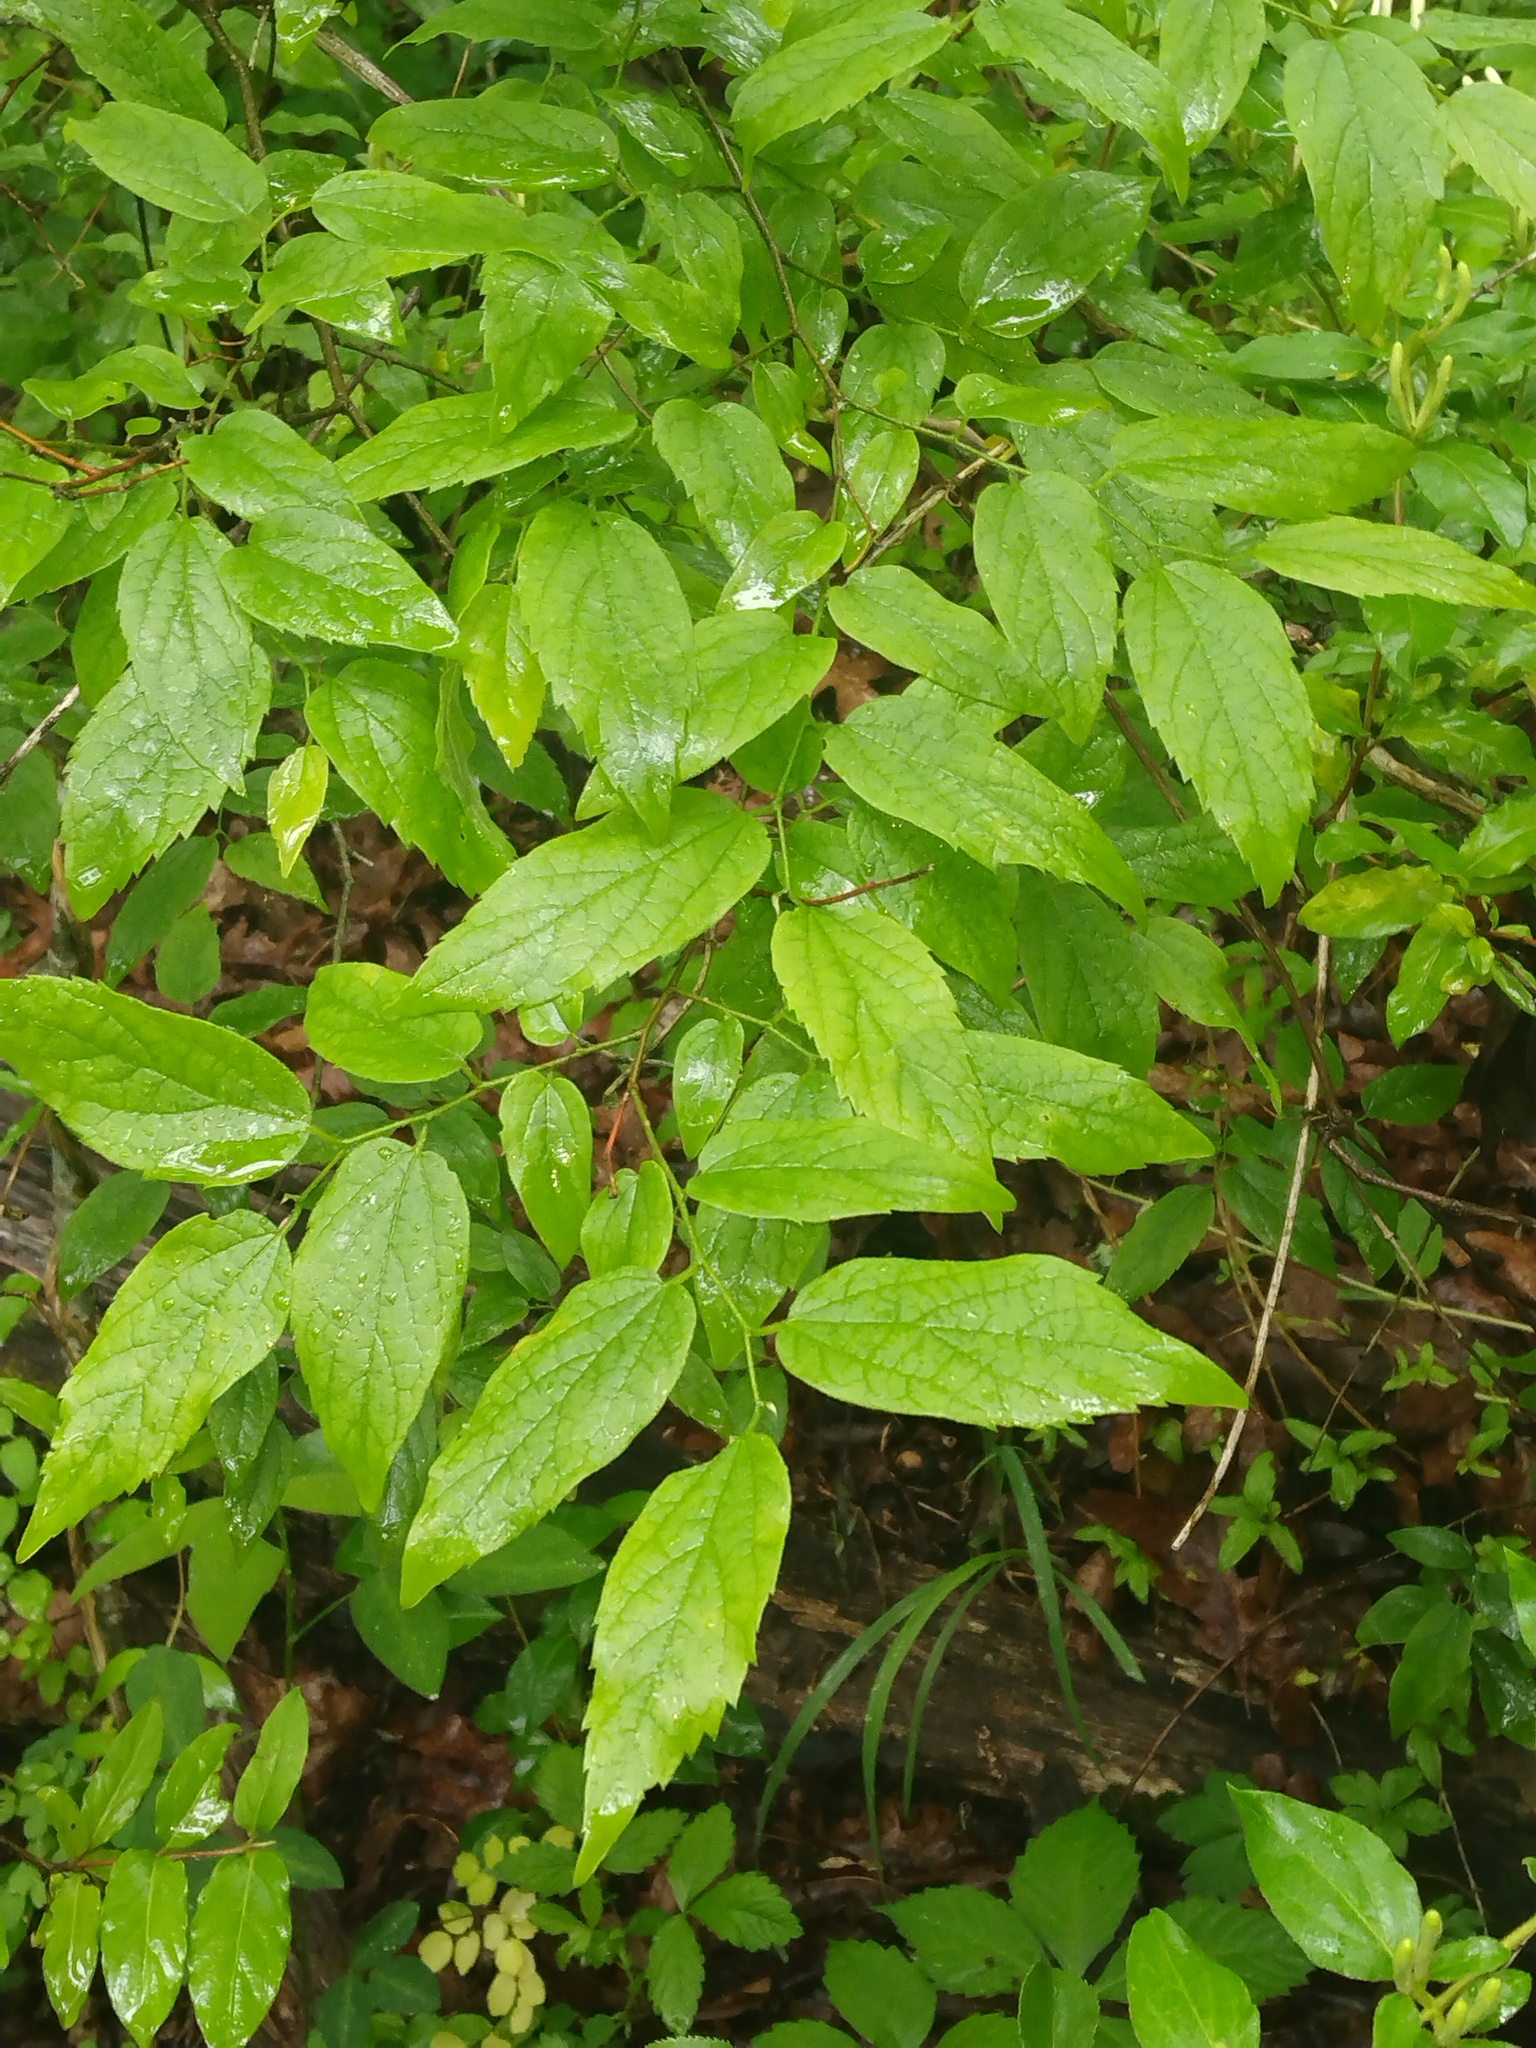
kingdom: Plantae
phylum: Tracheophyta
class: Magnoliopsida
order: Rosales
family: Cannabaceae
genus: Celtis
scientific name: Celtis laevigata
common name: Sugarberry
